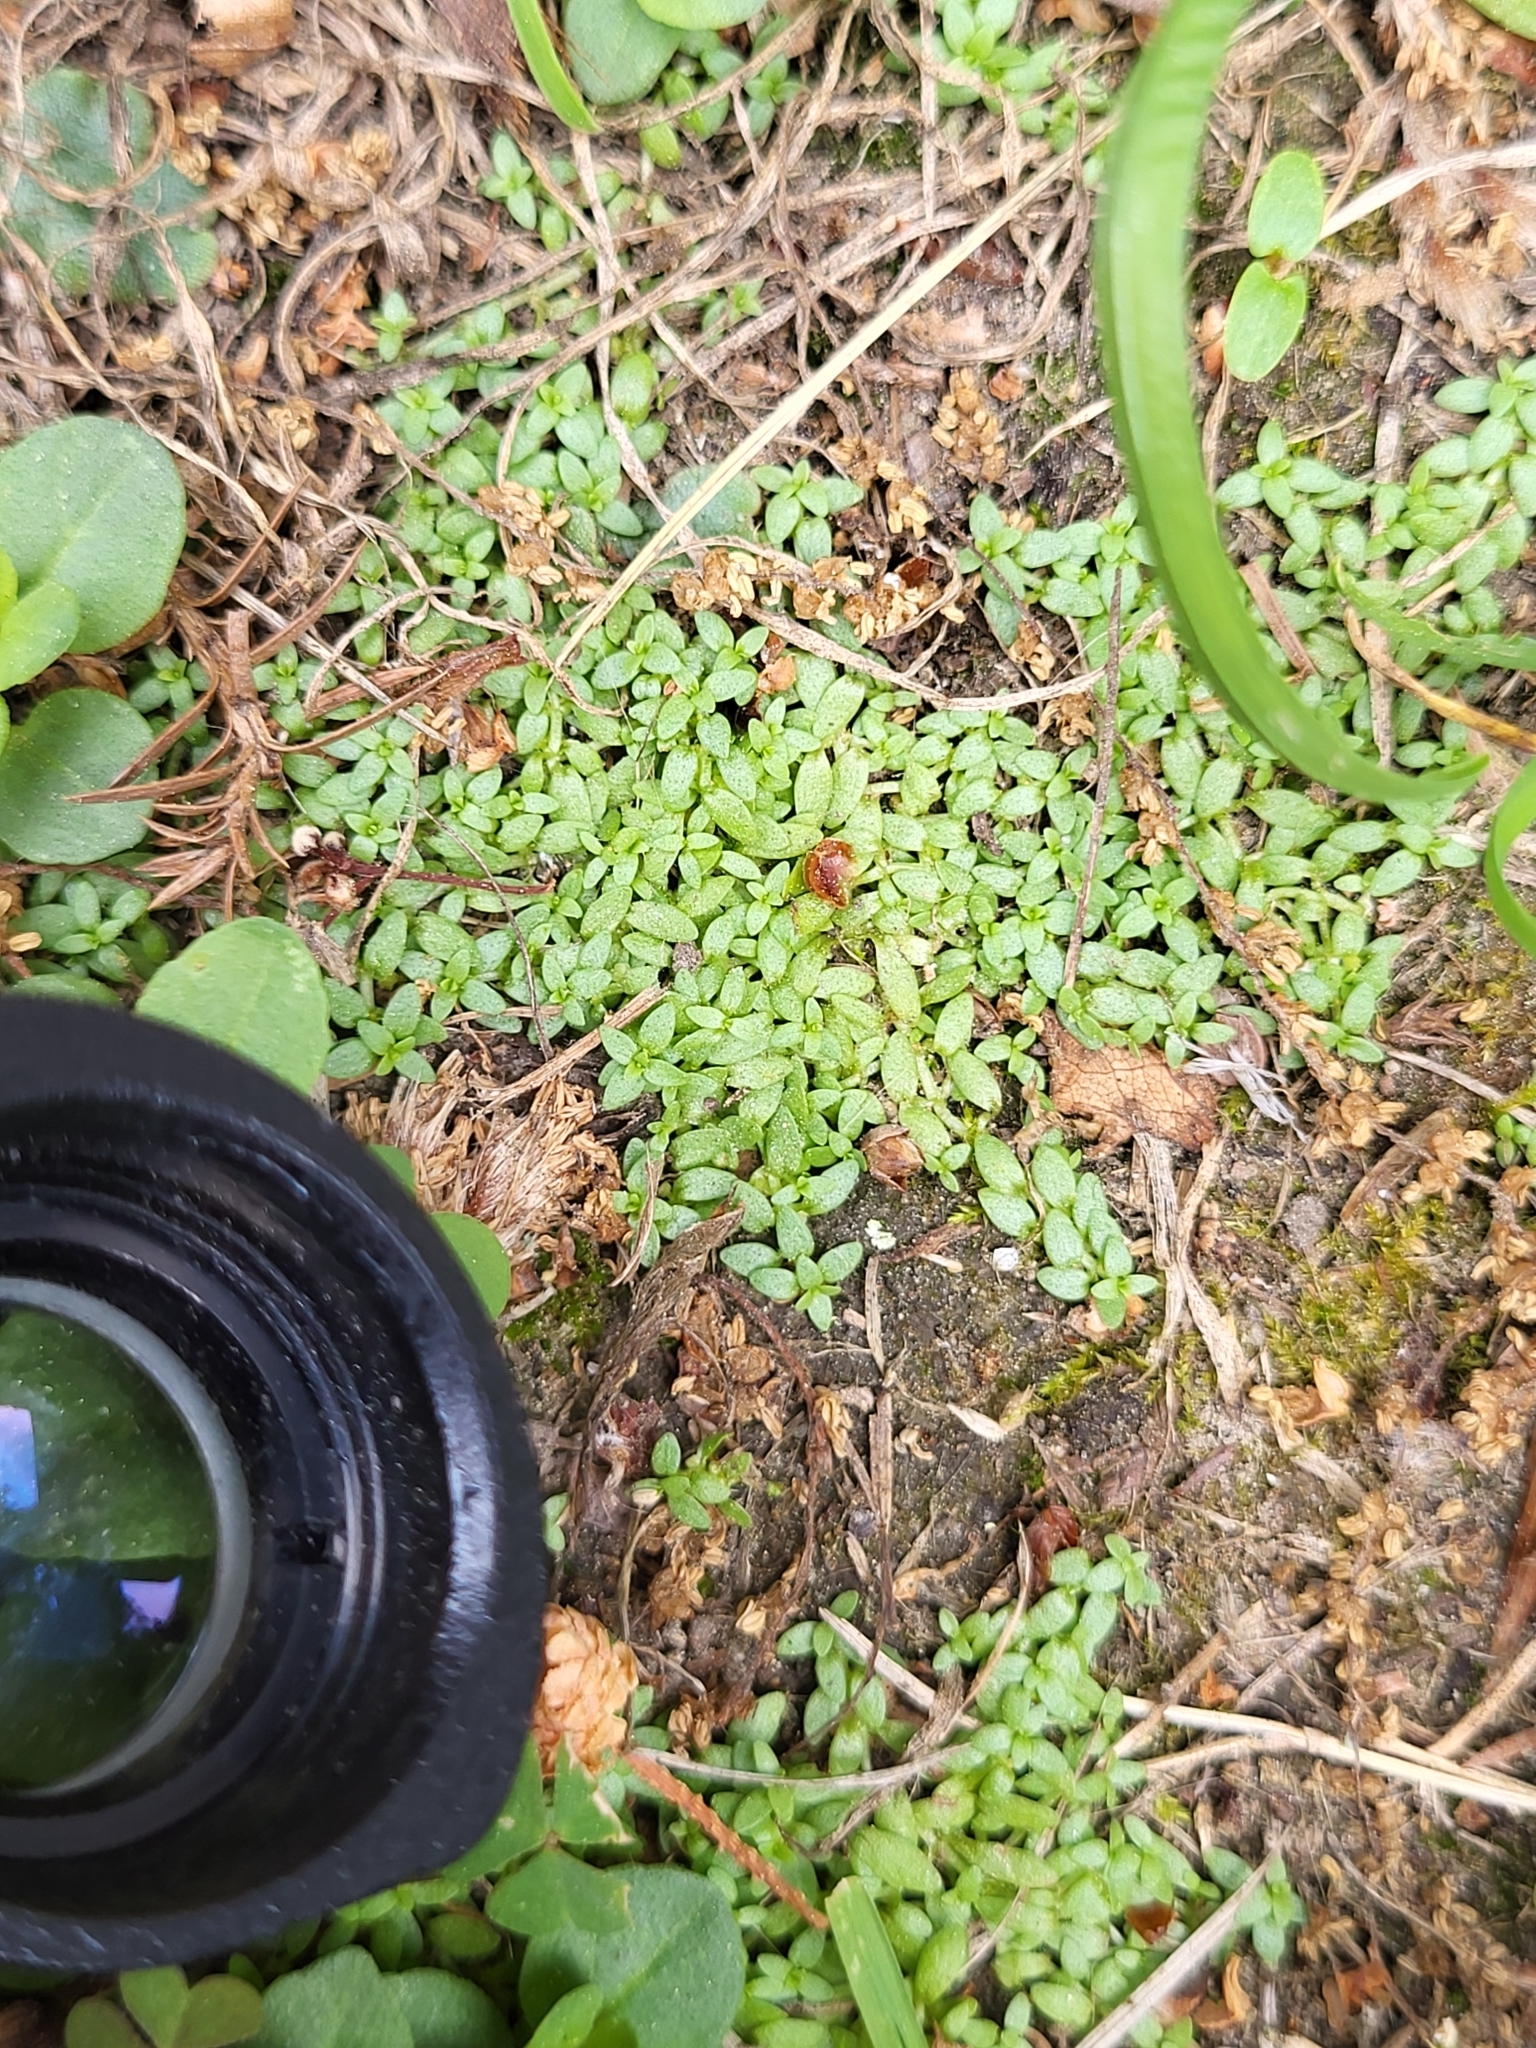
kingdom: Plantae
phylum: Tracheophyta
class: Magnoliopsida
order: Lamiales
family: Plantaginaceae
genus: Callitriche
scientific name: Callitriche terrestris
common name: Terrestrial water-starwort
